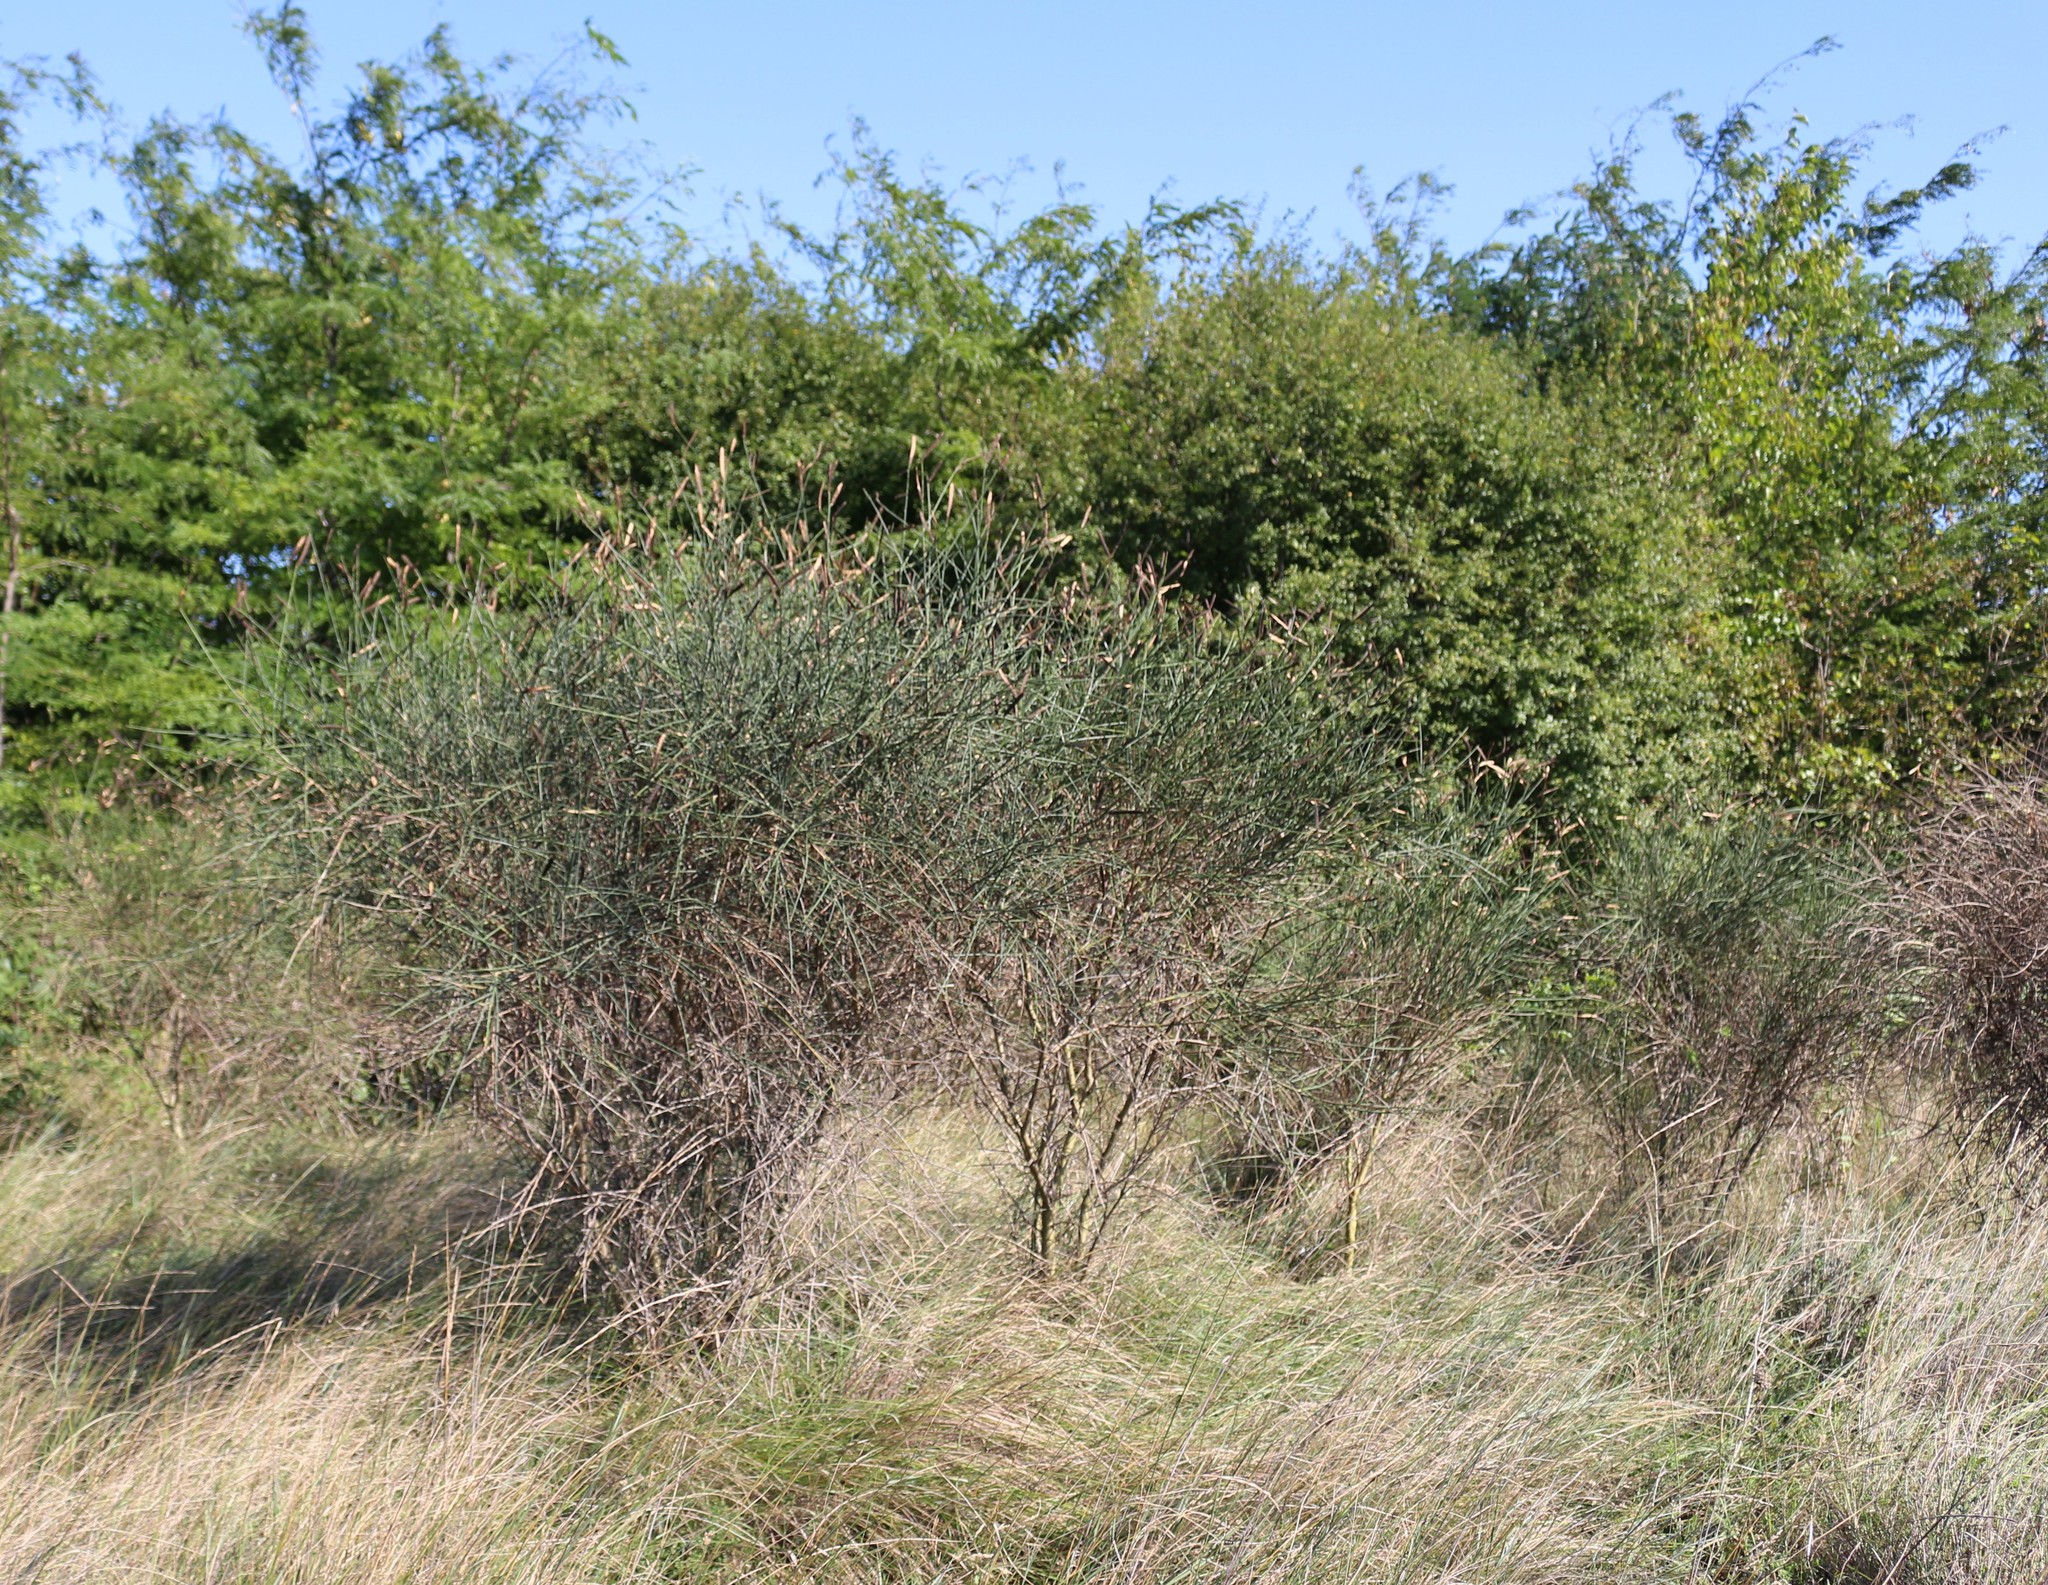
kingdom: Plantae
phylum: Tracheophyta
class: Magnoliopsida
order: Fabales
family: Fabaceae
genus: Spartium
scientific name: Spartium junceum
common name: Spanish broom
